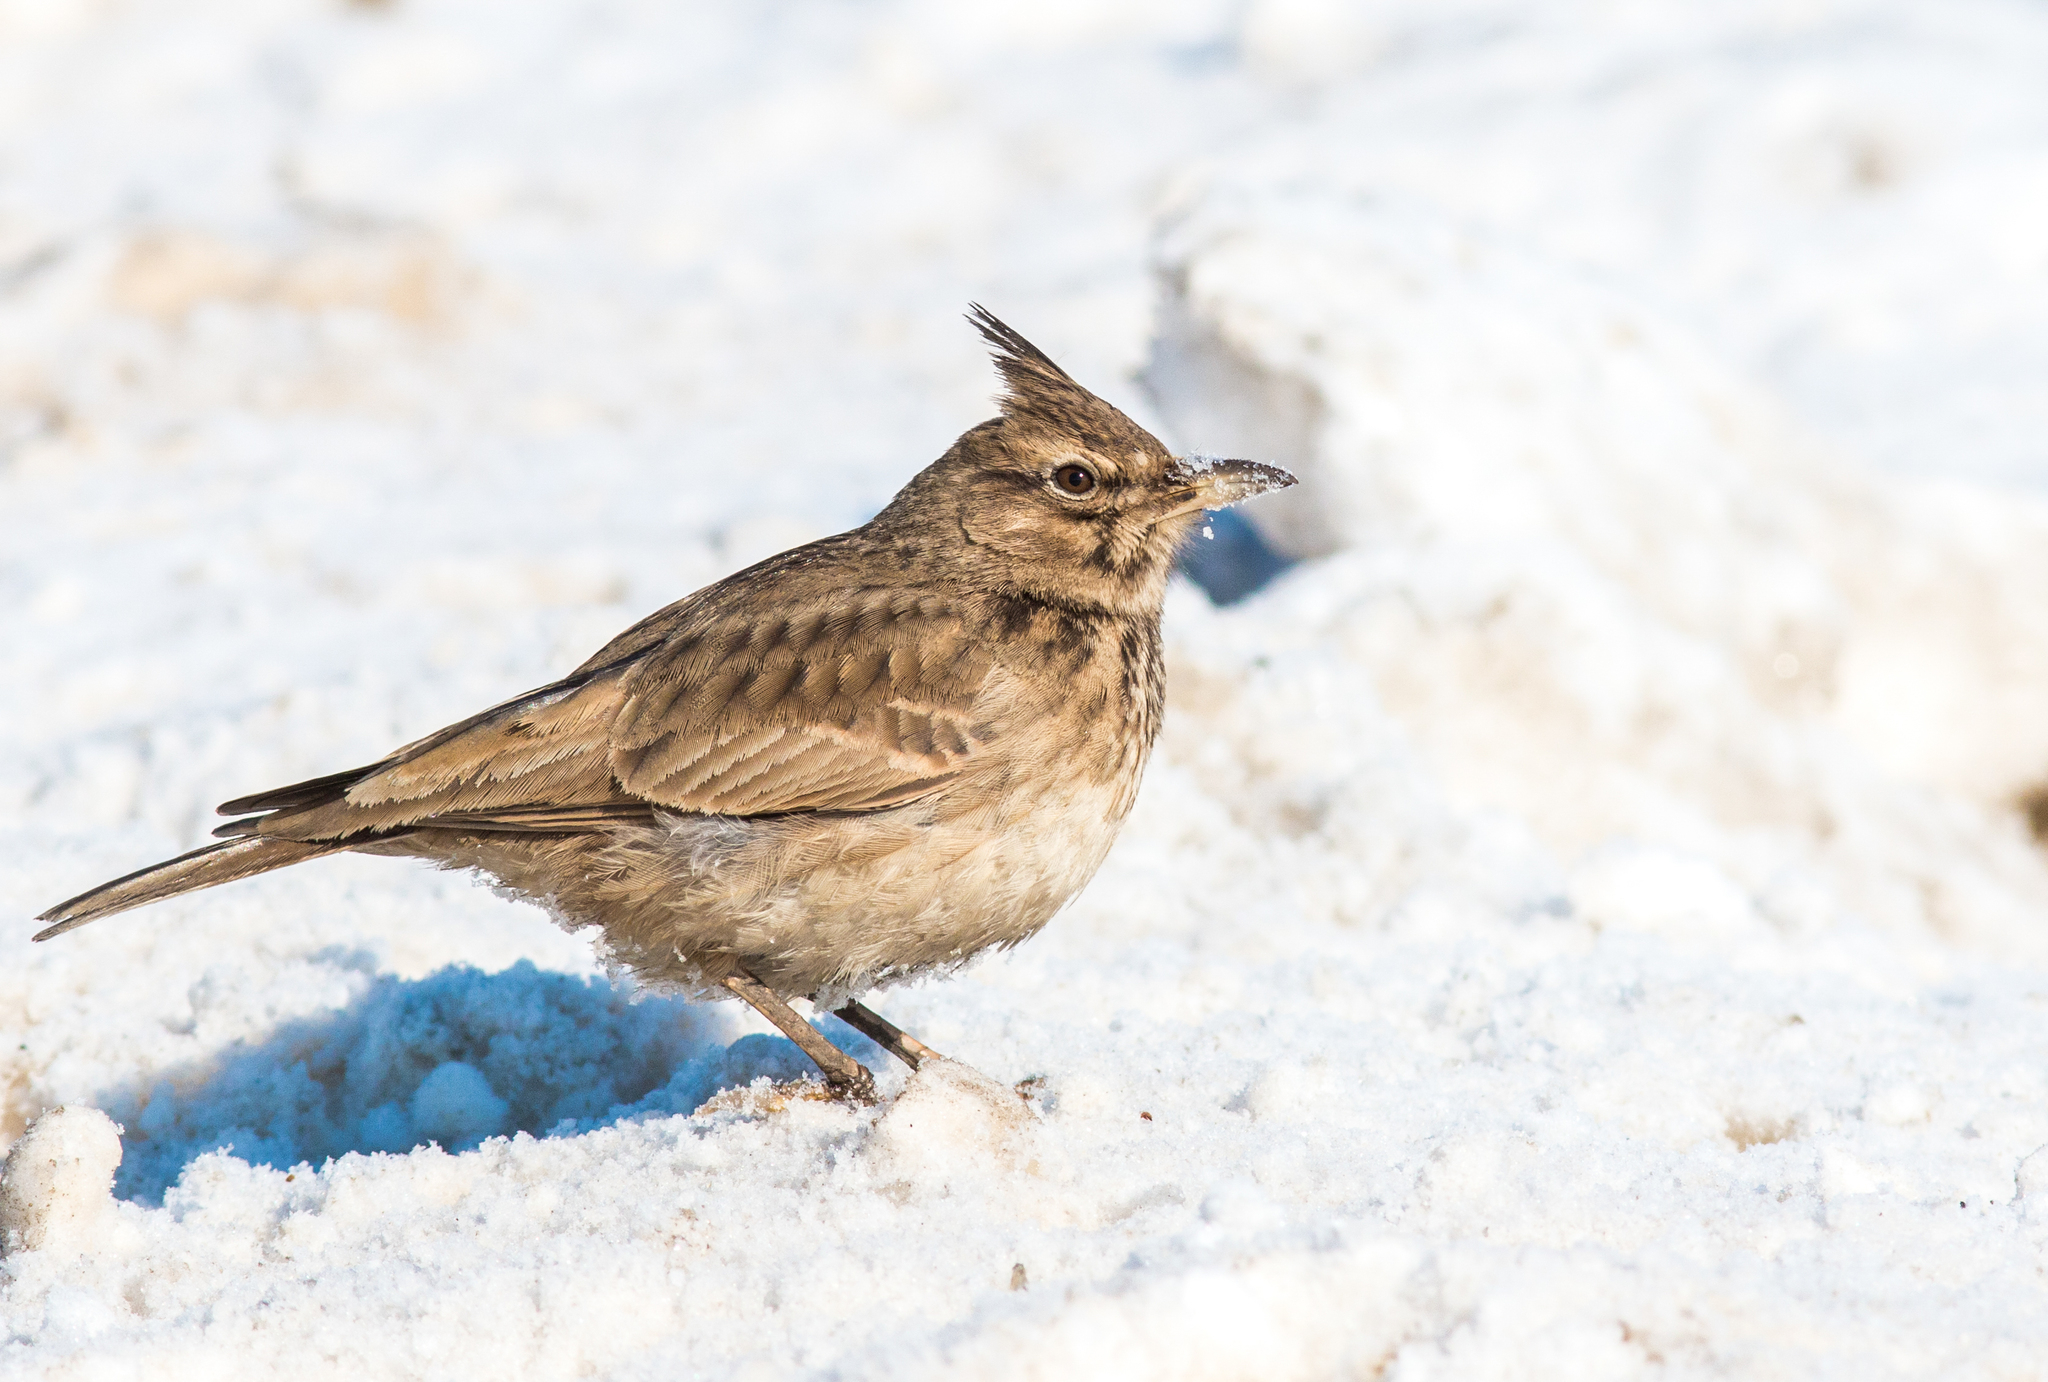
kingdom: Animalia
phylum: Chordata
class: Aves
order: Passeriformes
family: Alaudidae
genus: Galerida
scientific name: Galerida cristata
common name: Crested lark
